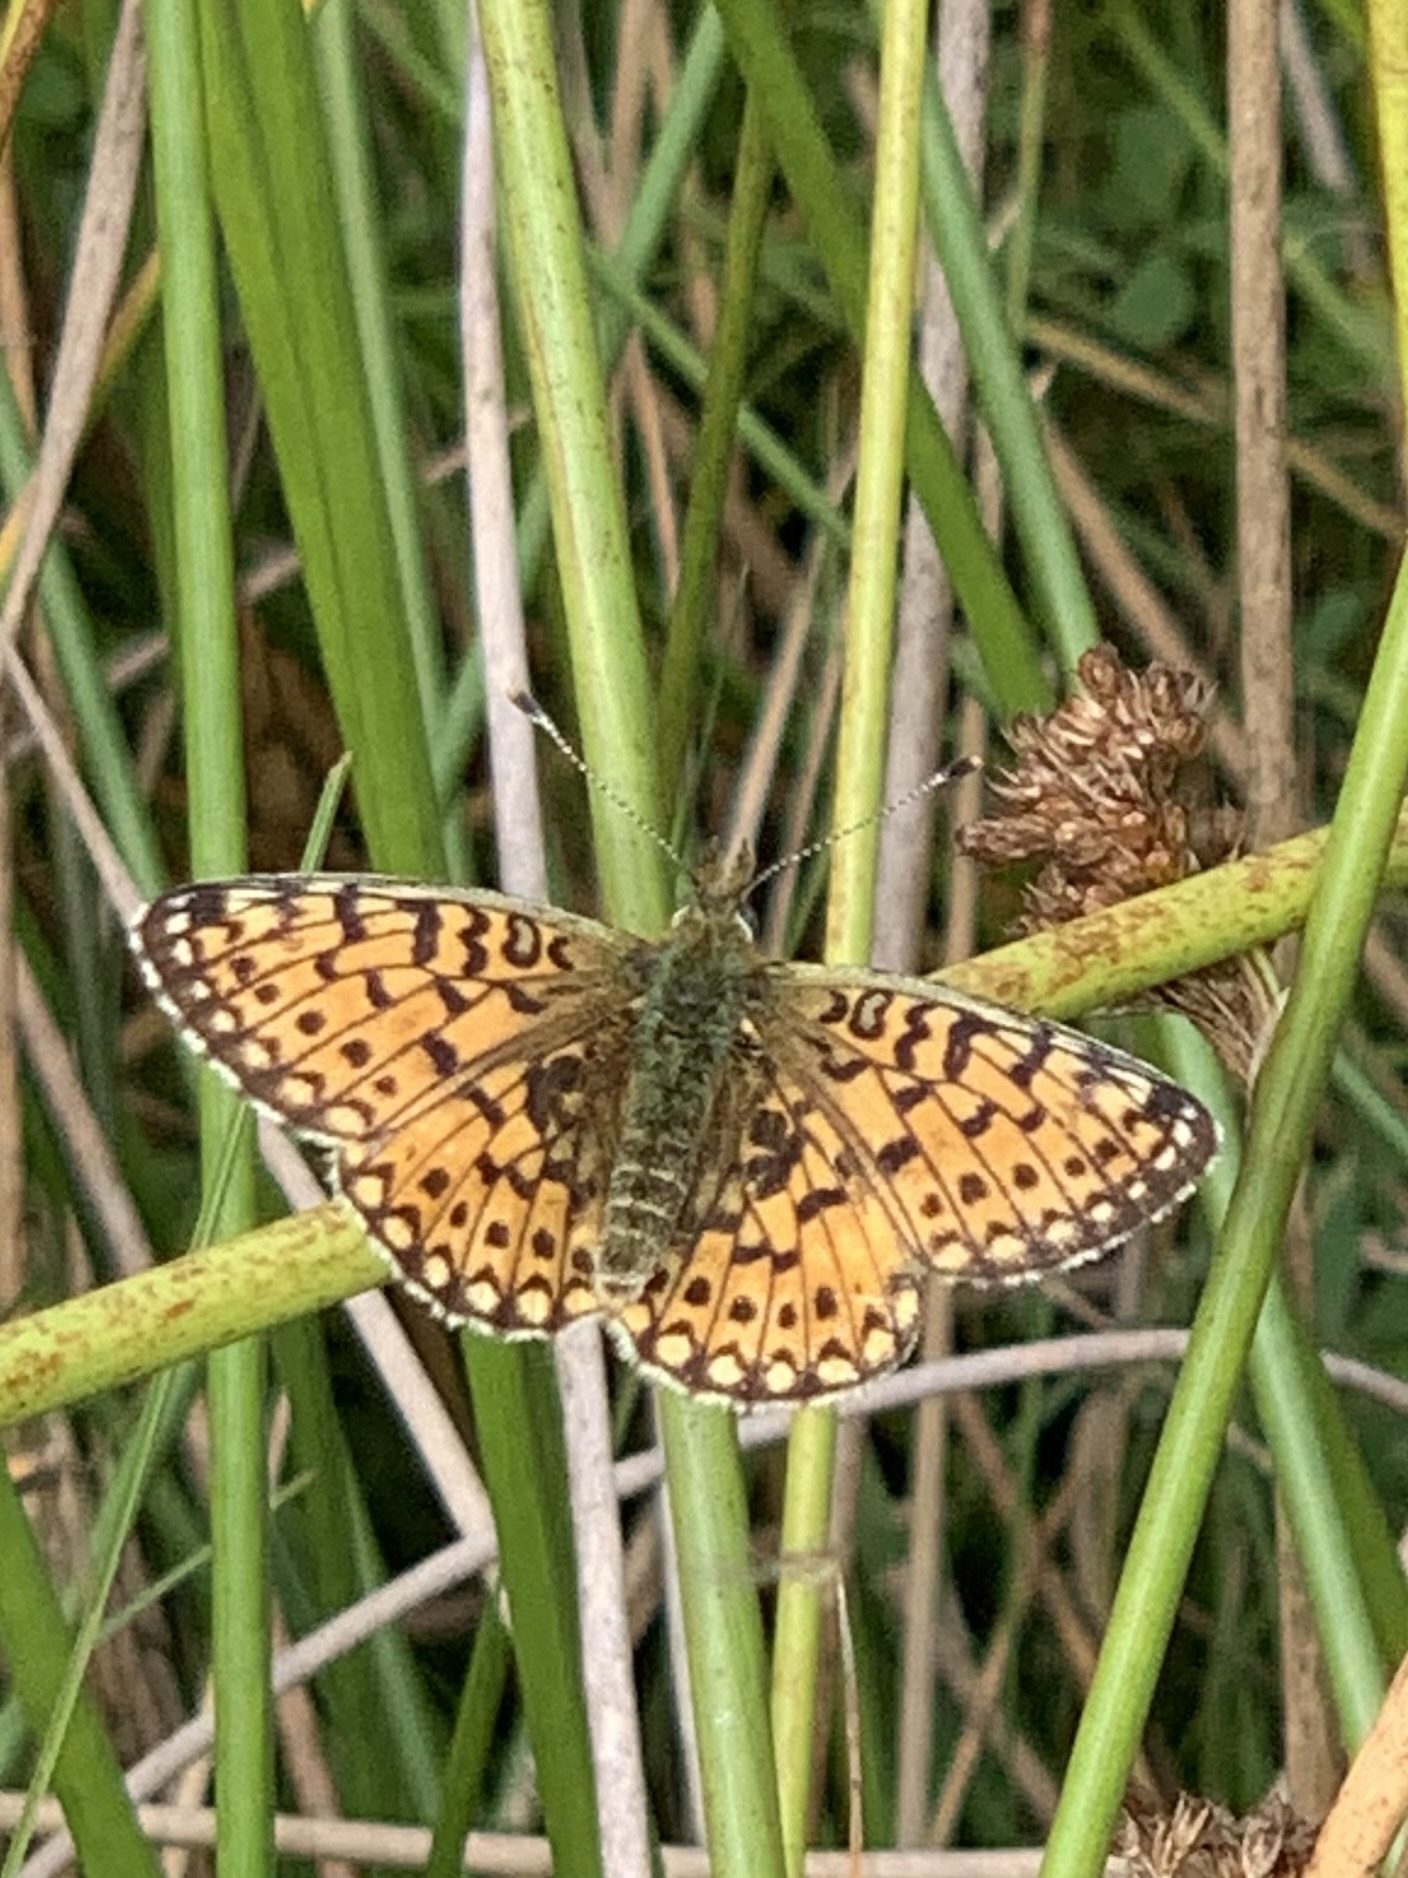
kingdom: Animalia
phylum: Arthropoda
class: Insecta
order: Lepidoptera
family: Nymphalidae
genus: Boloria
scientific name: Boloria selene
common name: Small pearl-bordered fritillary
